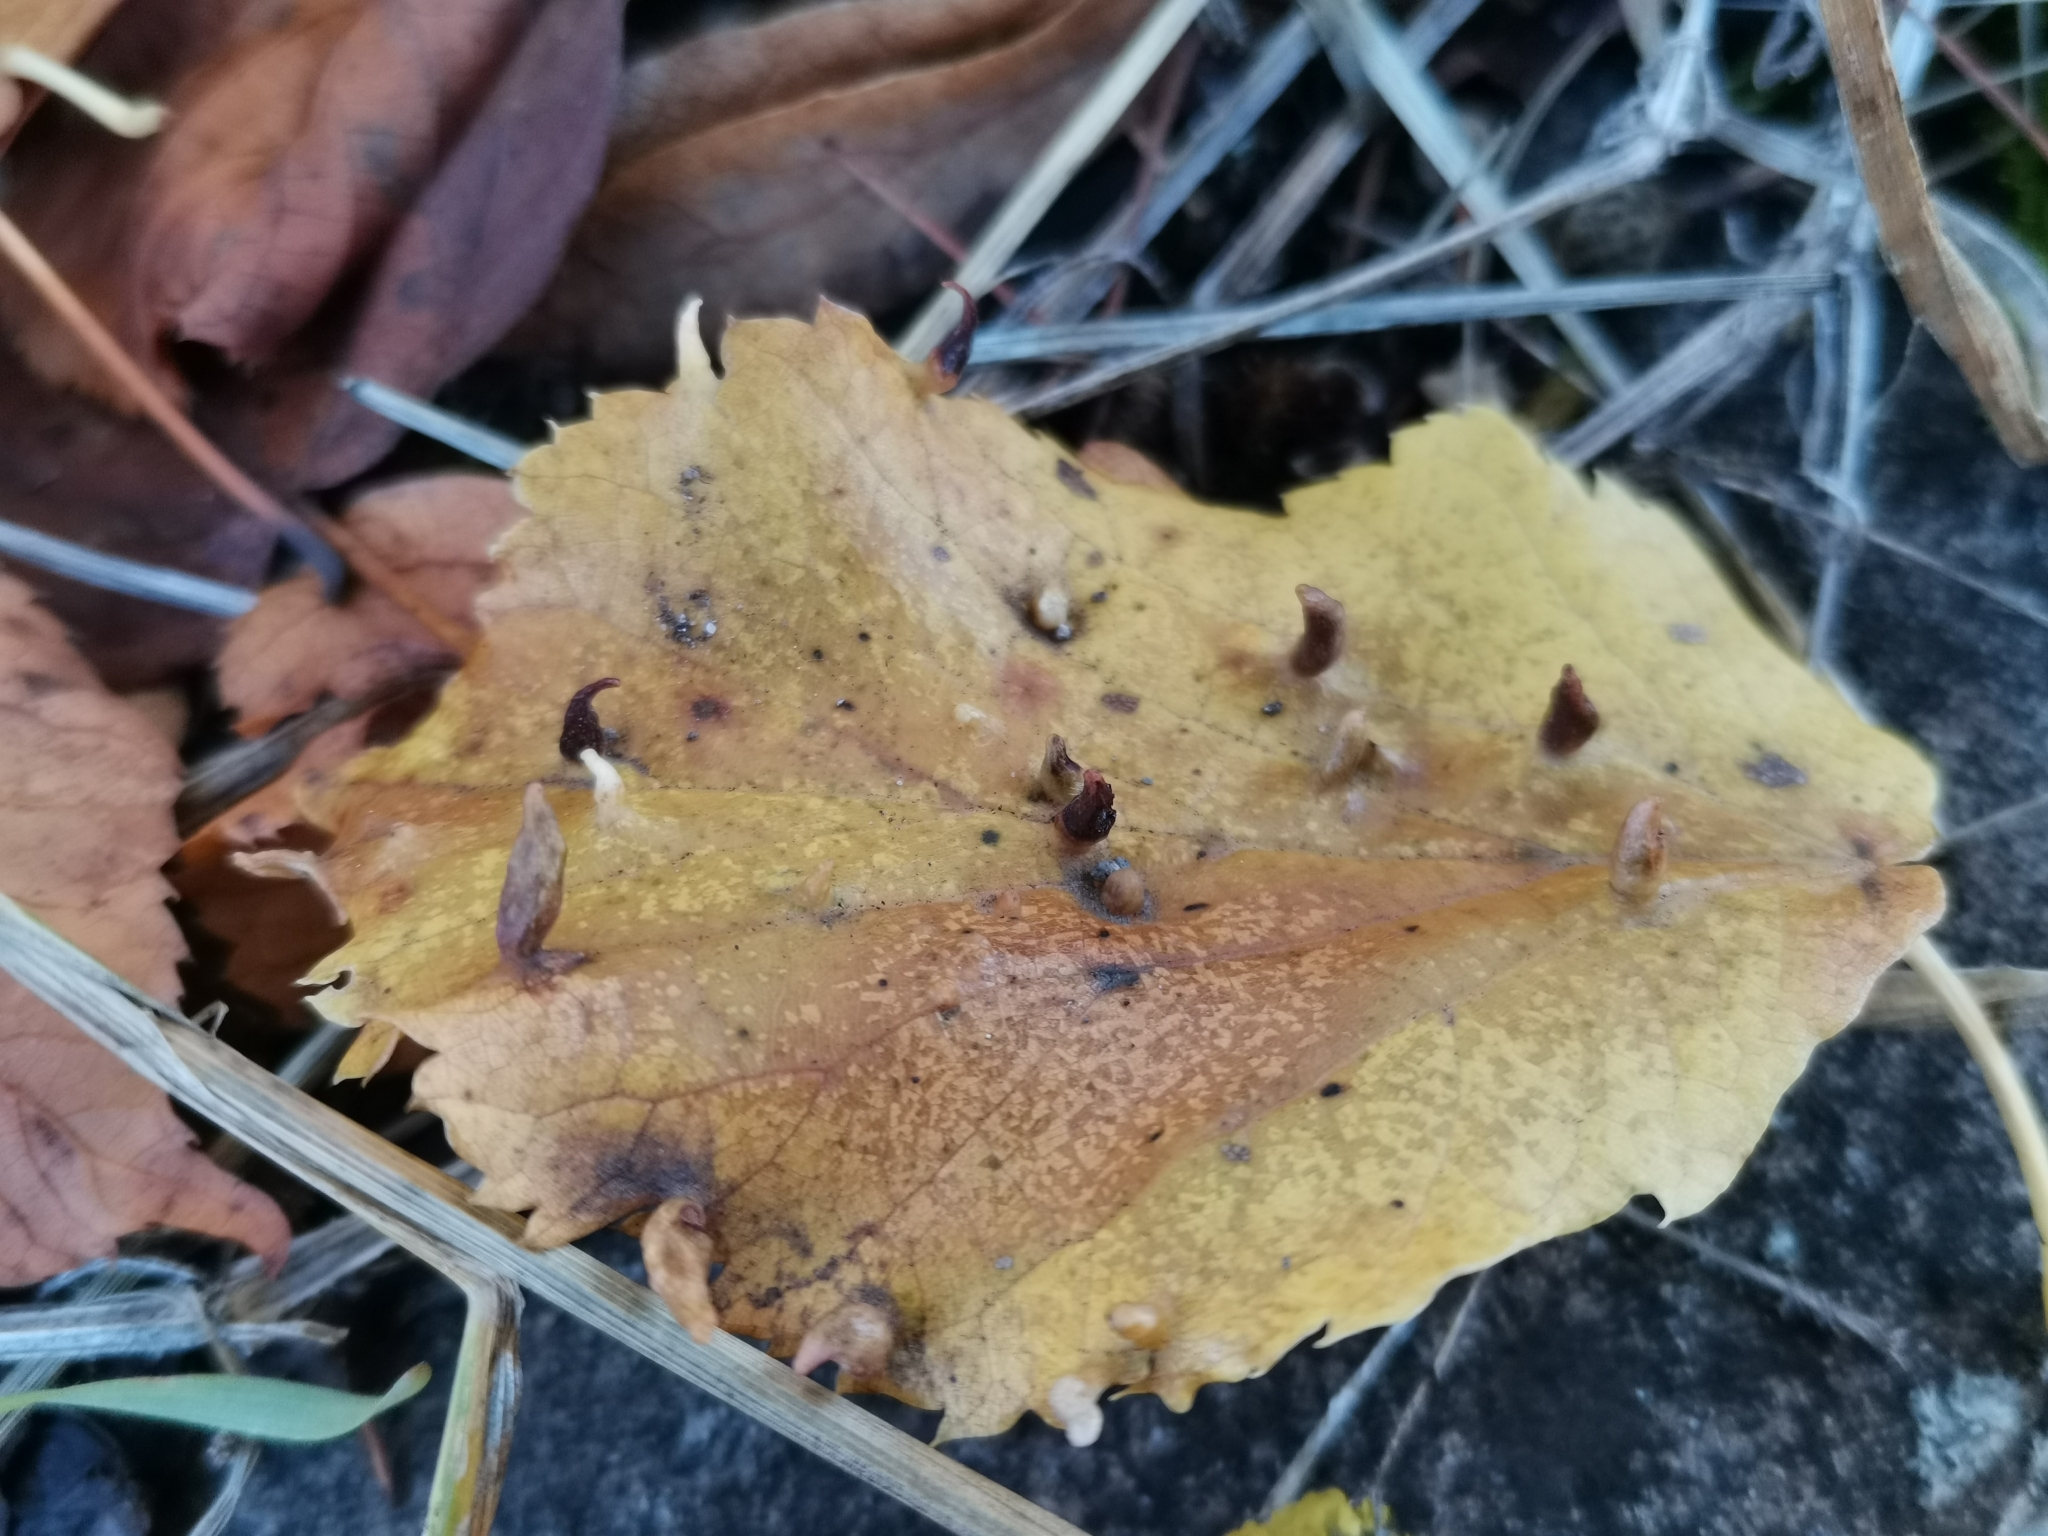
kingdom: Animalia
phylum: Arthropoda
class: Arachnida
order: Trombidiformes
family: Eriophyidae
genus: Eriophyes
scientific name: Eriophyes tiliae
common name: Red nail gall mite
